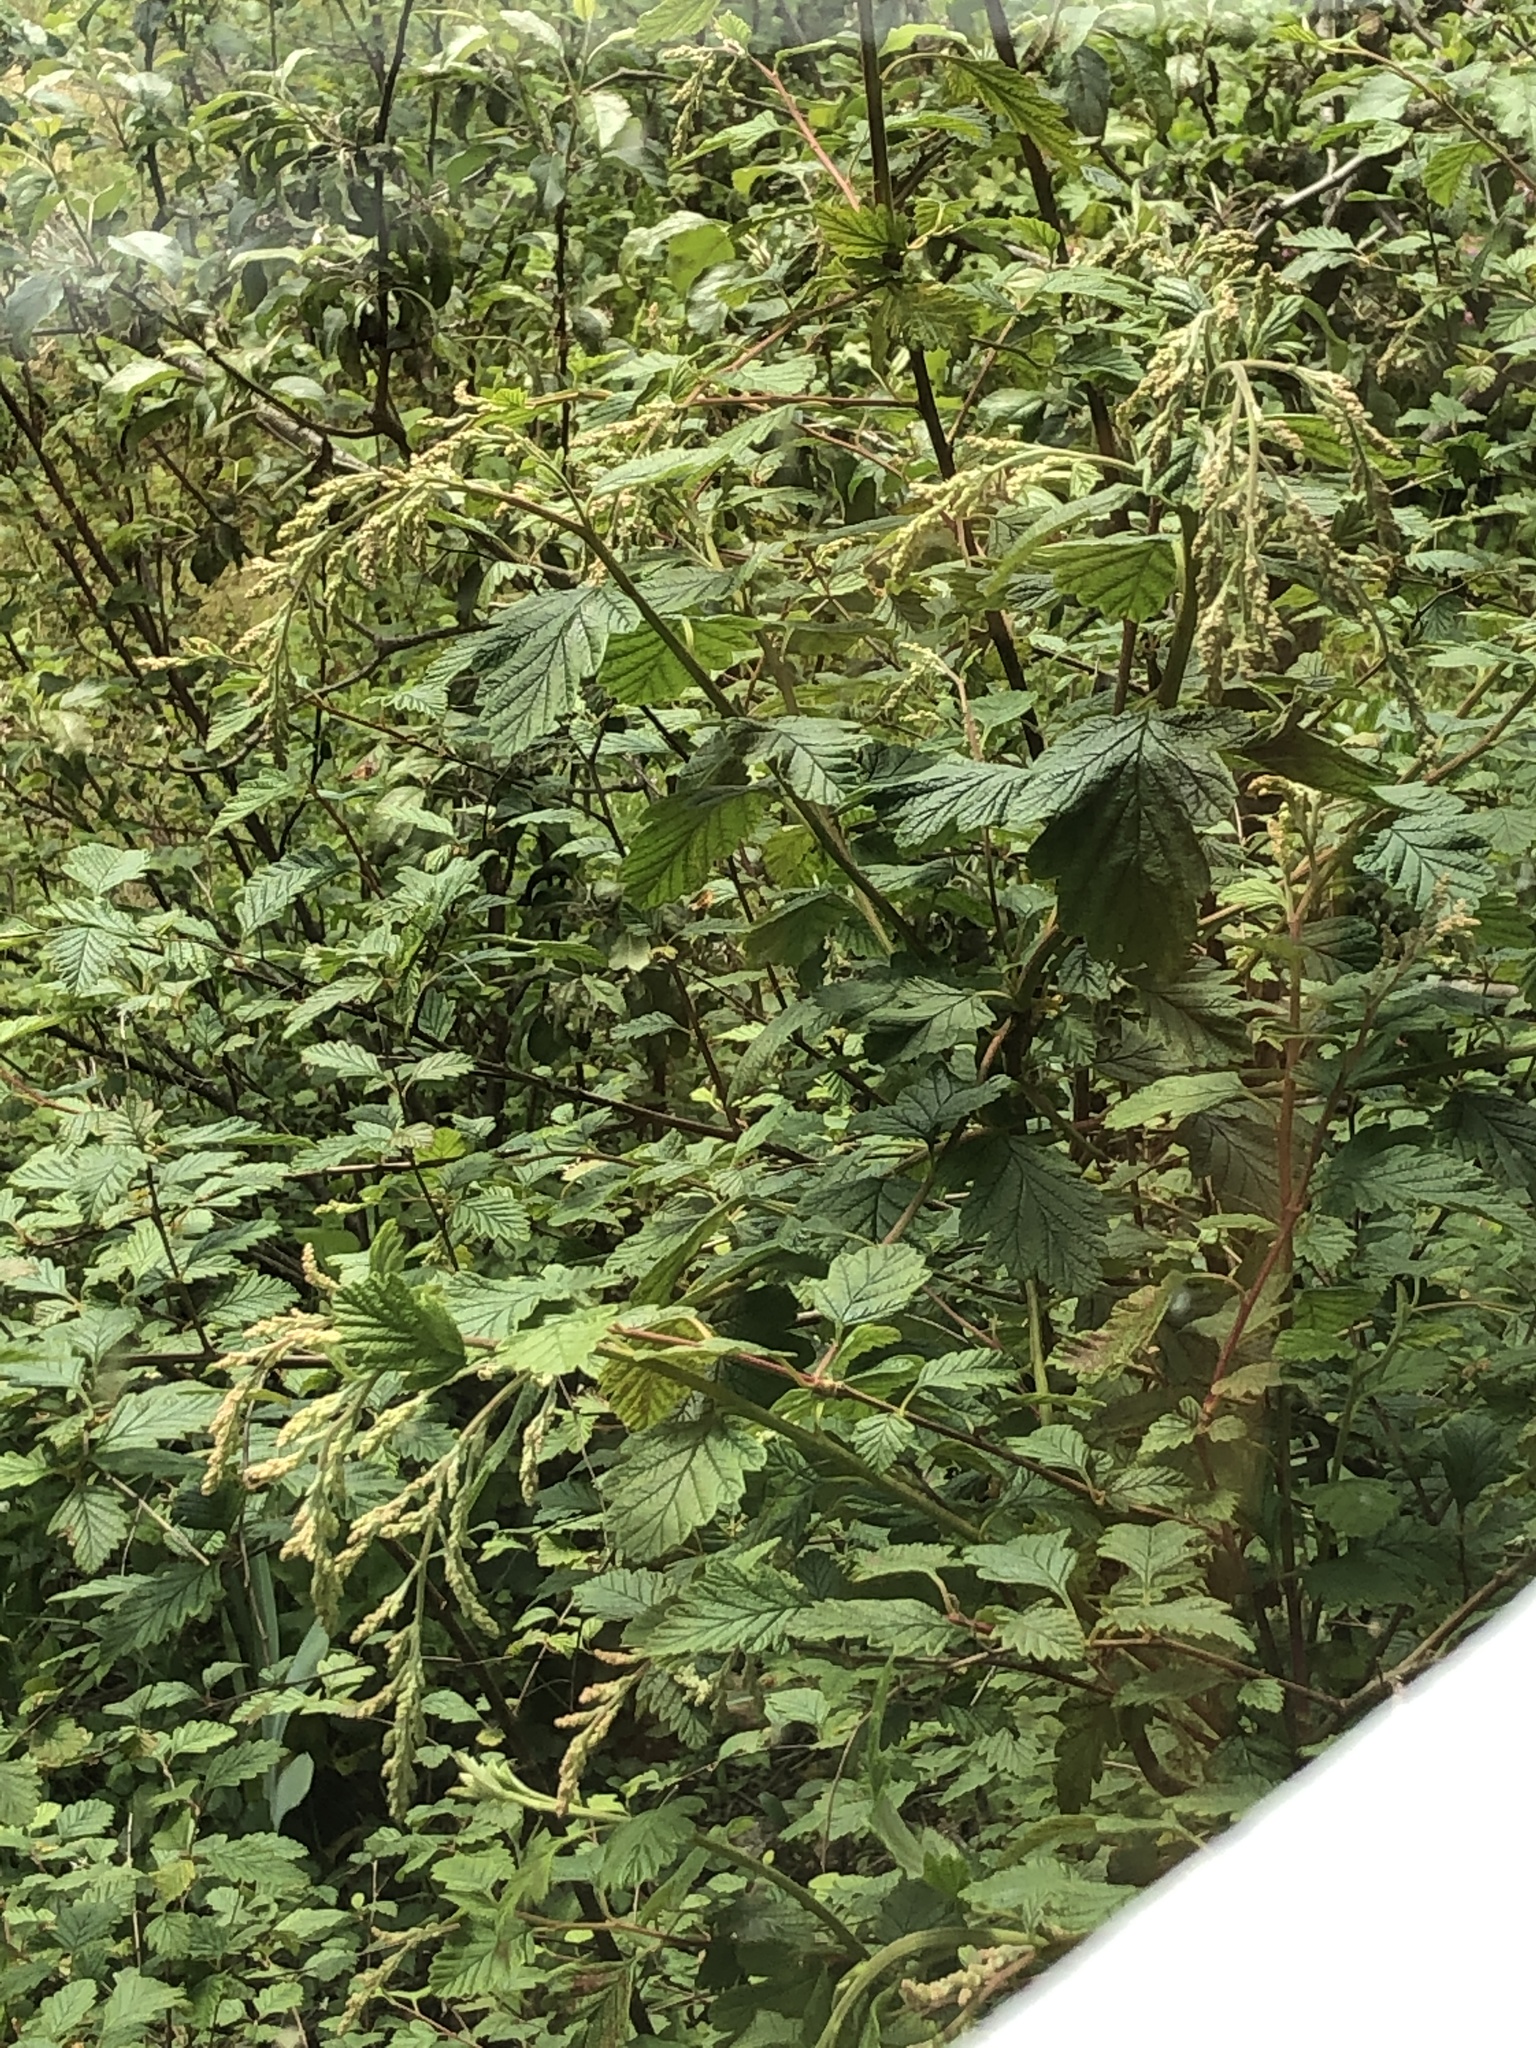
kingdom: Plantae
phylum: Tracheophyta
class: Magnoliopsida
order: Rosales
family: Rosaceae
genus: Holodiscus
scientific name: Holodiscus discolor
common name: Oceanspray
